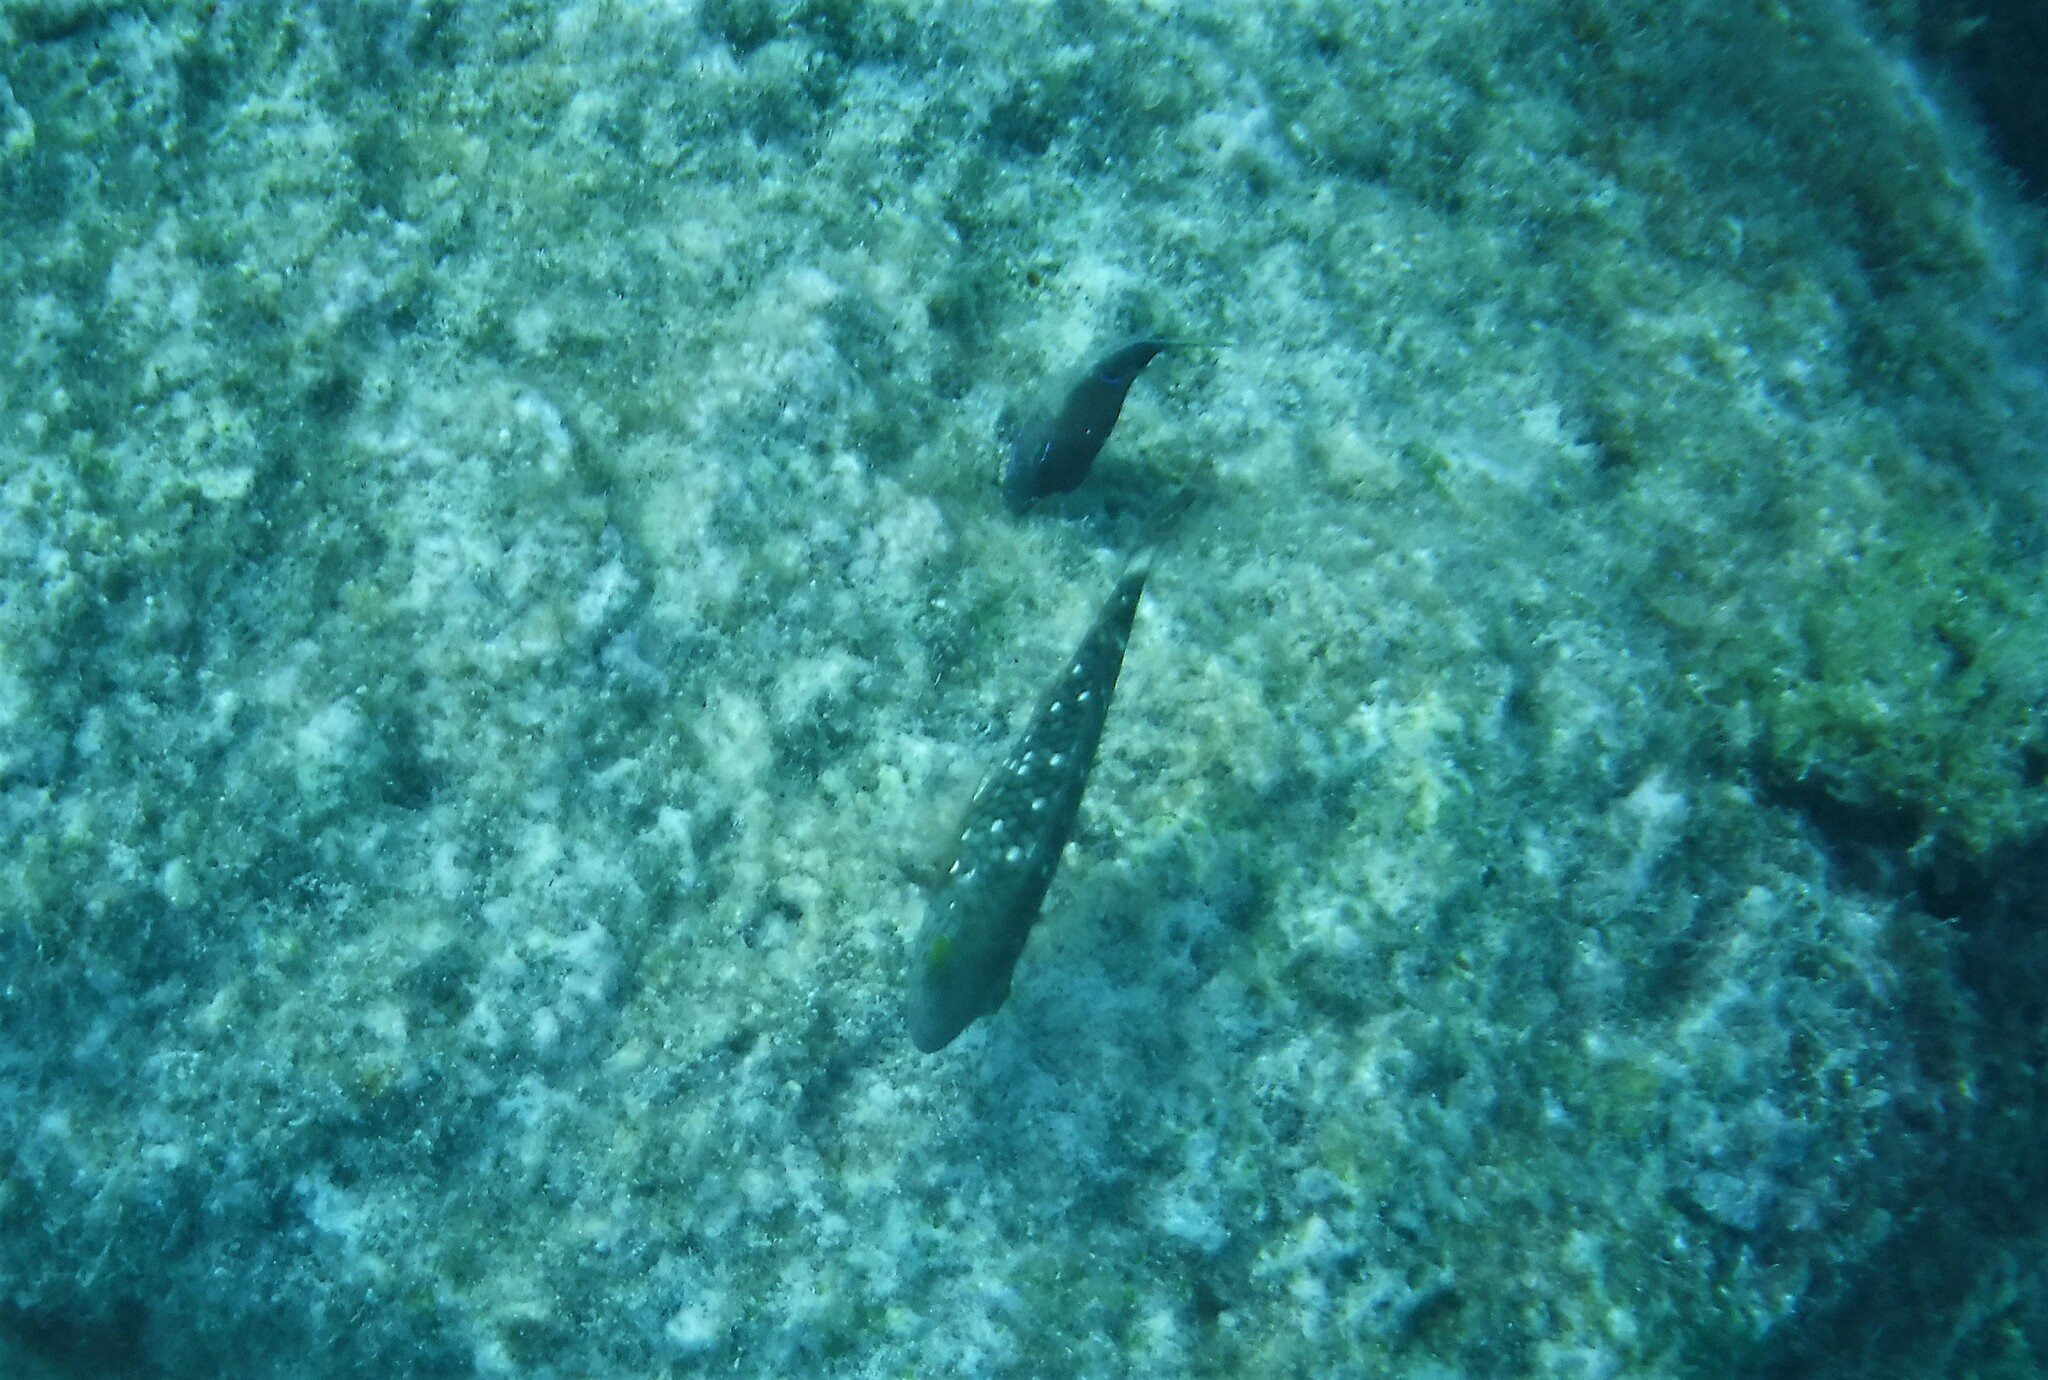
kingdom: Animalia
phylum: Chordata
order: Perciformes
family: Scaridae
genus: Sparisoma
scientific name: Sparisoma viride
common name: Stoplight parrotfish
